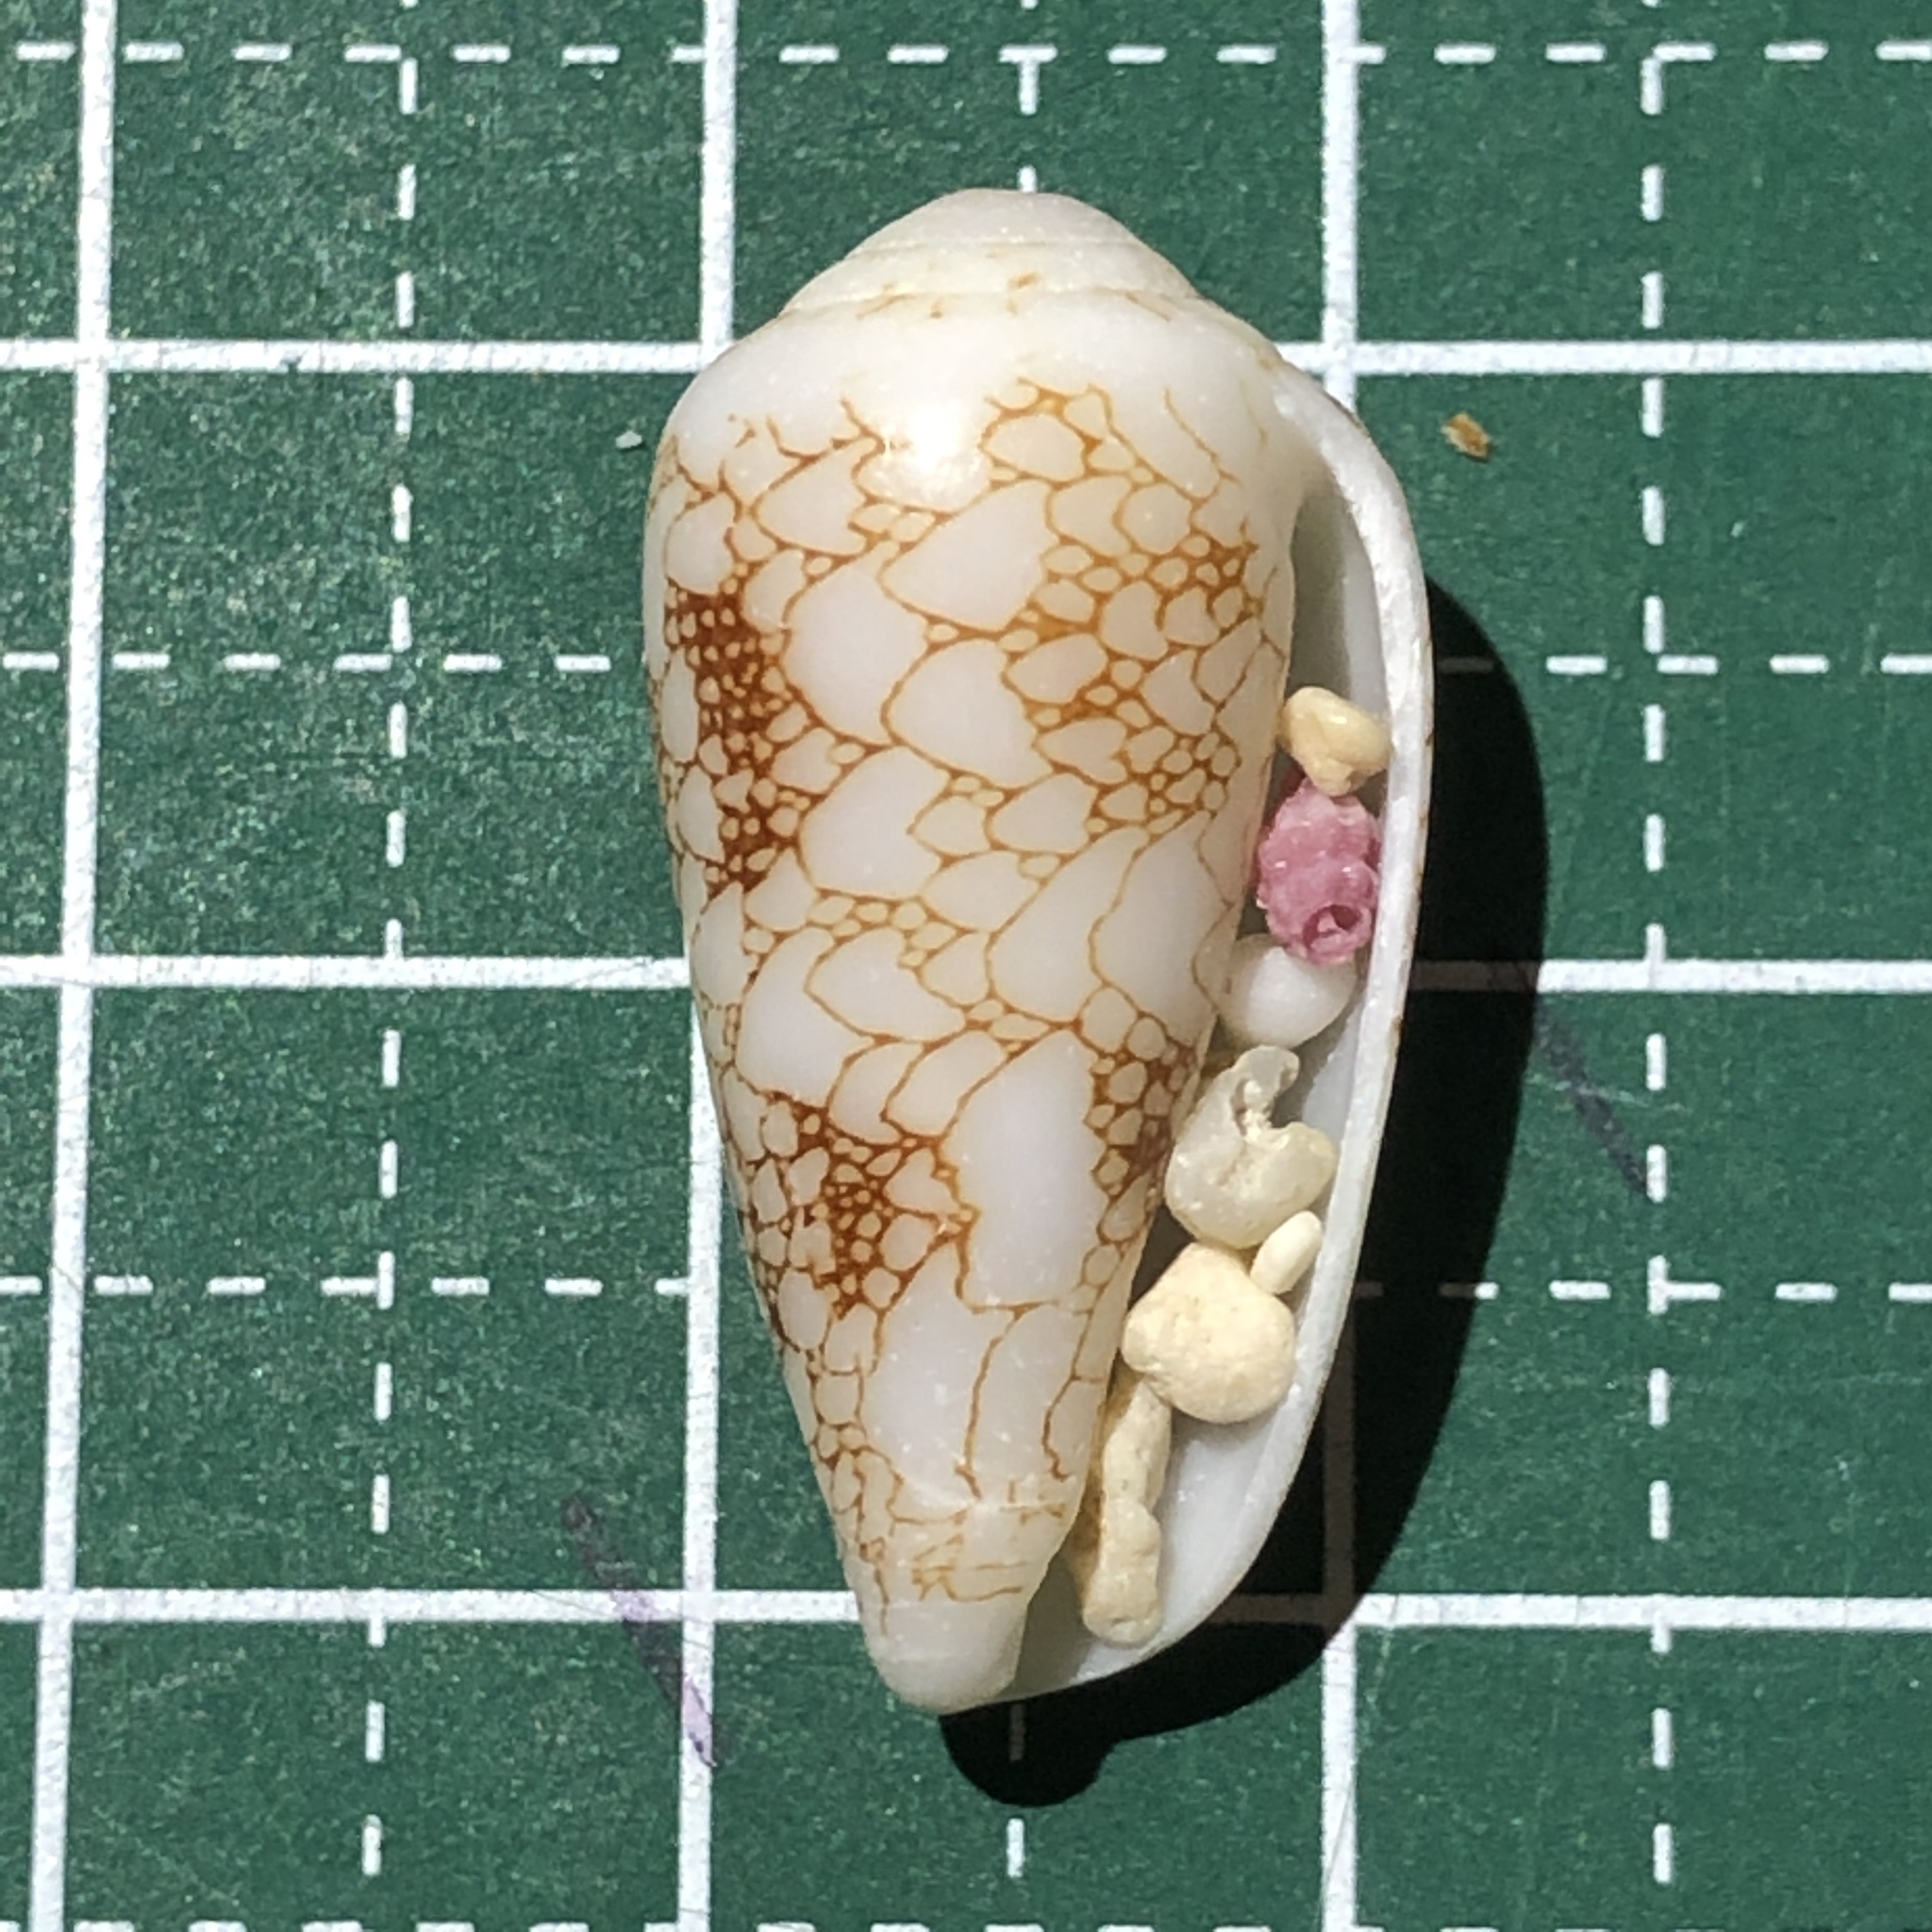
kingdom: Animalia
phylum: Mollusca
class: Gastropoda
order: Neogastropoda
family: Conidae
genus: Conus
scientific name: Conus omaria
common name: Omaria cone
